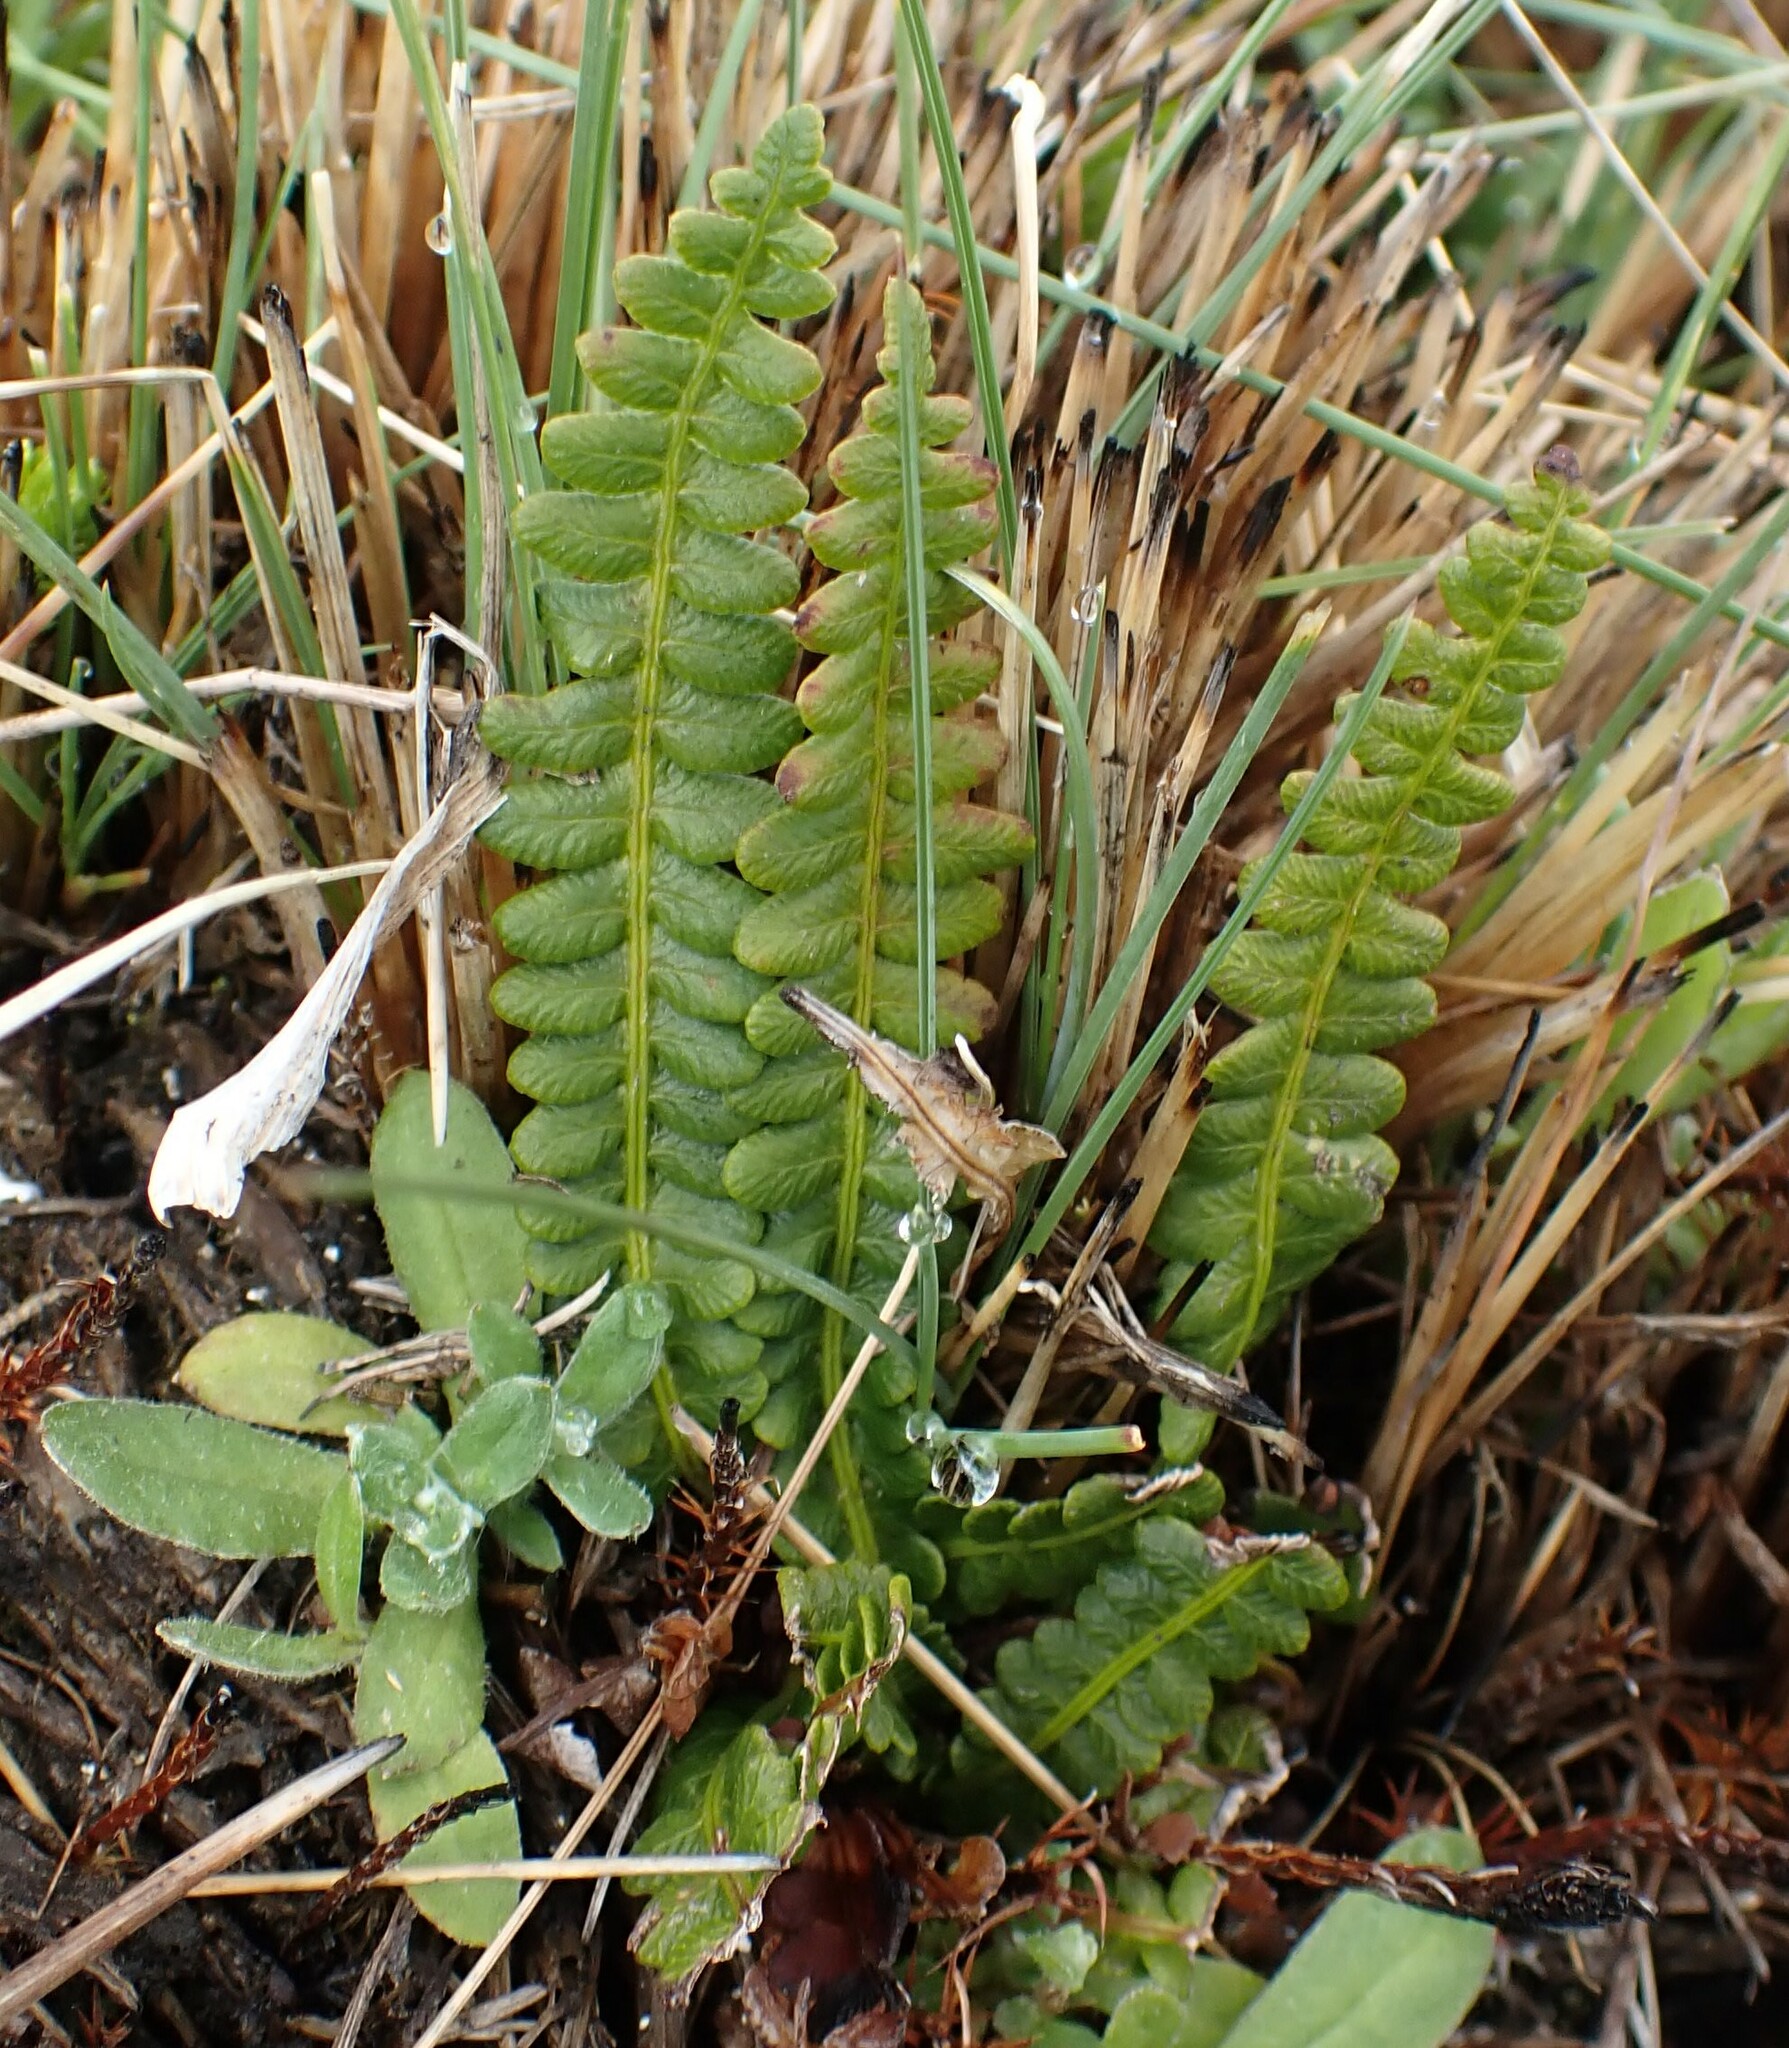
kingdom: Plantae
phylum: Tracheophyta
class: Polypodiopsida
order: Polypodiales
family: Blechnaceae
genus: Austroblechnum
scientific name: Austroblechnum penna-marina
